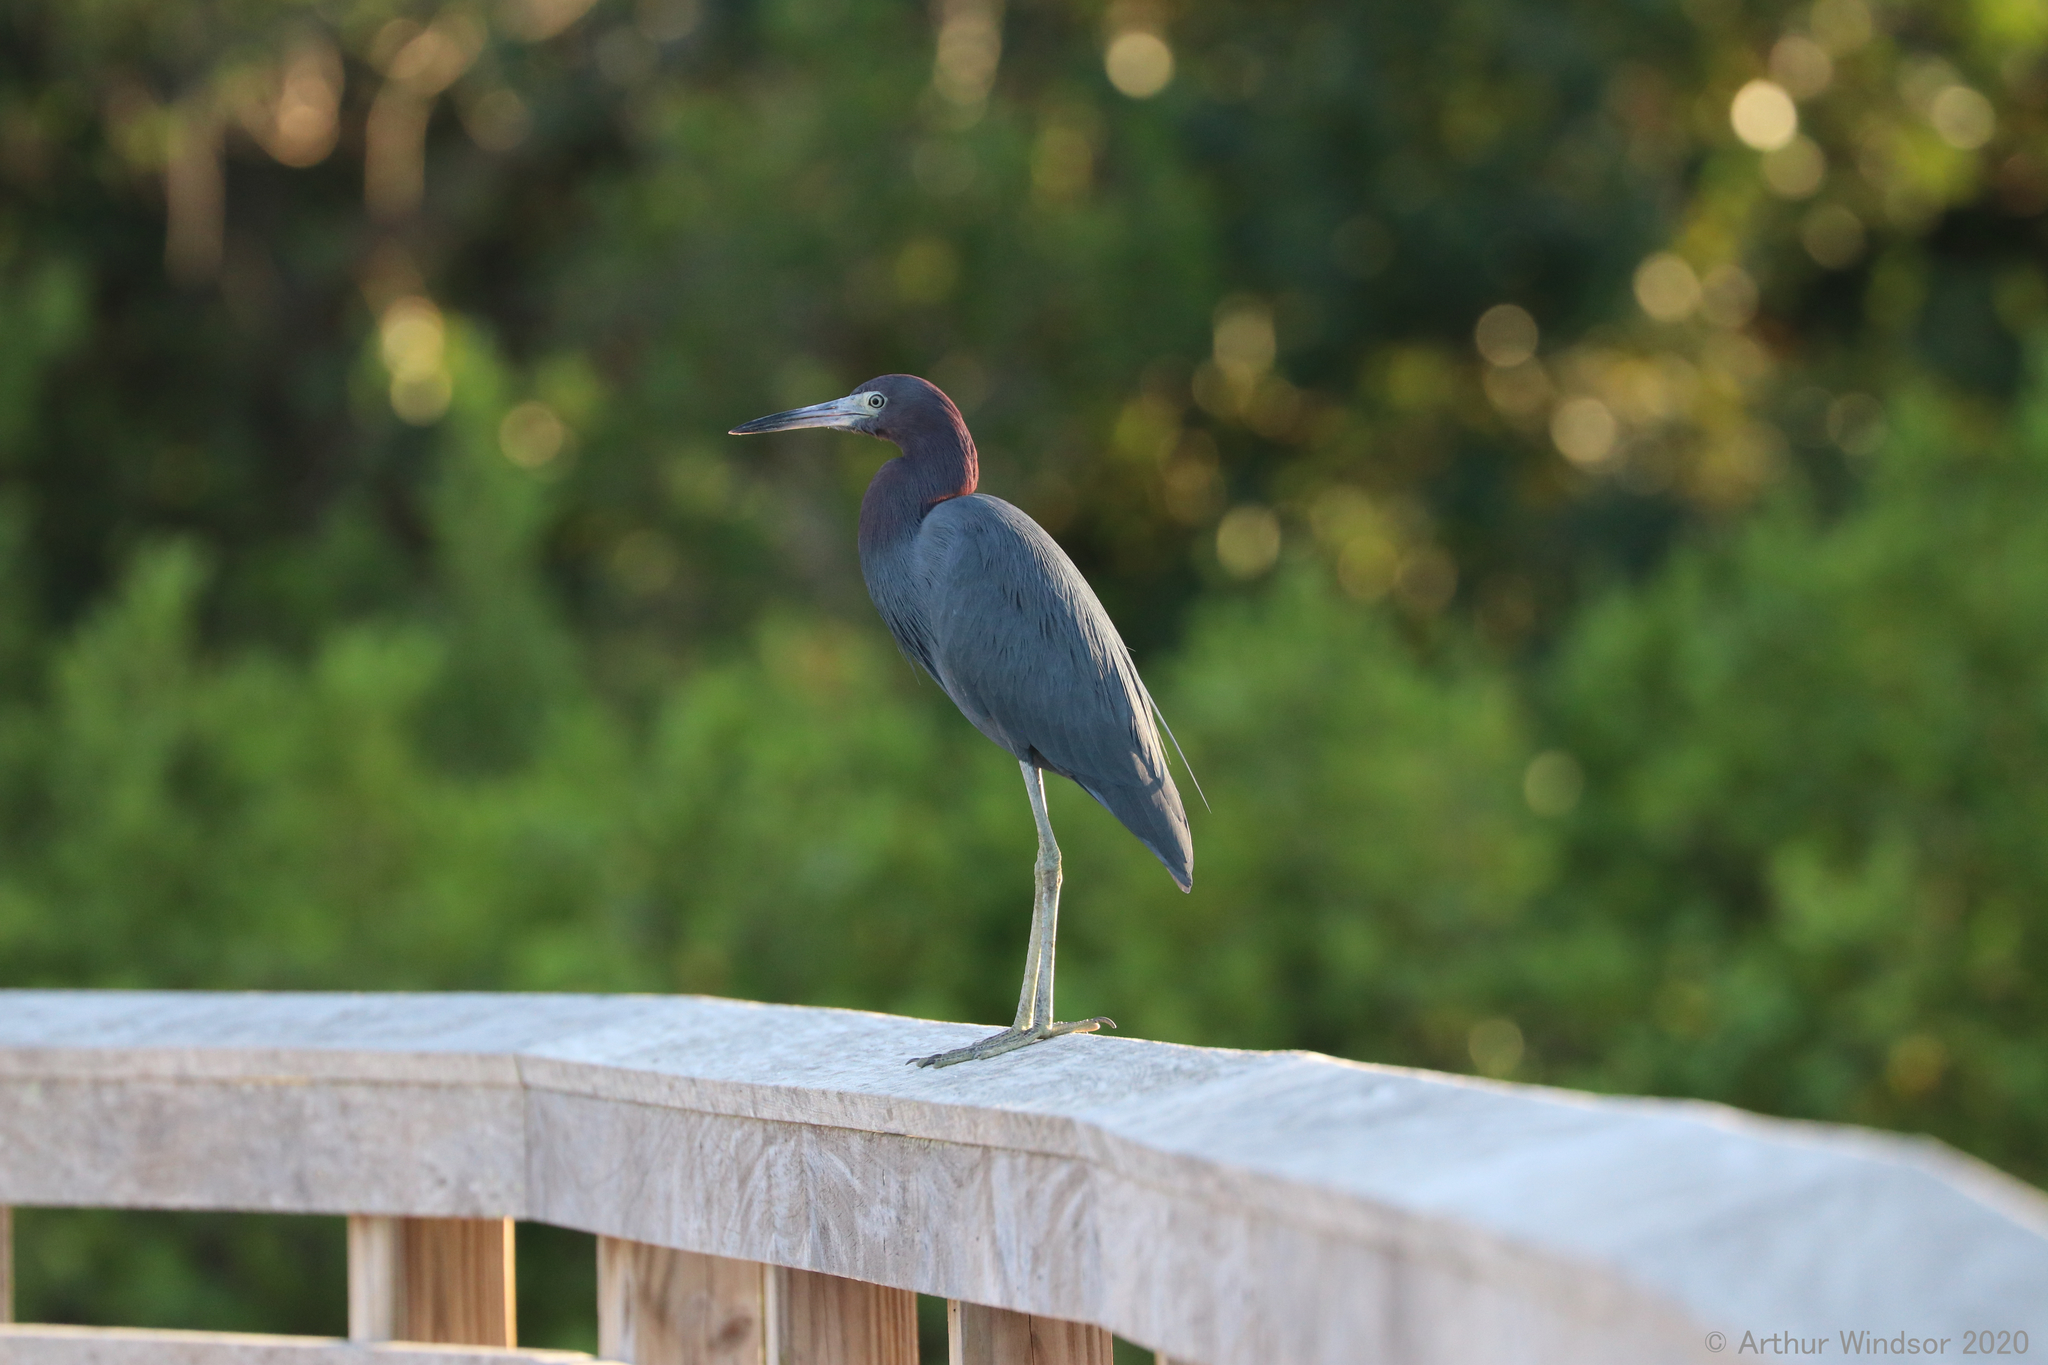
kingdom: Animalia
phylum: Chordata
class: Aves
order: Pelecaniformes
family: Ardeidae
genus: Egretta
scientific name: Egretta caerulea
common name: Little blue heron
